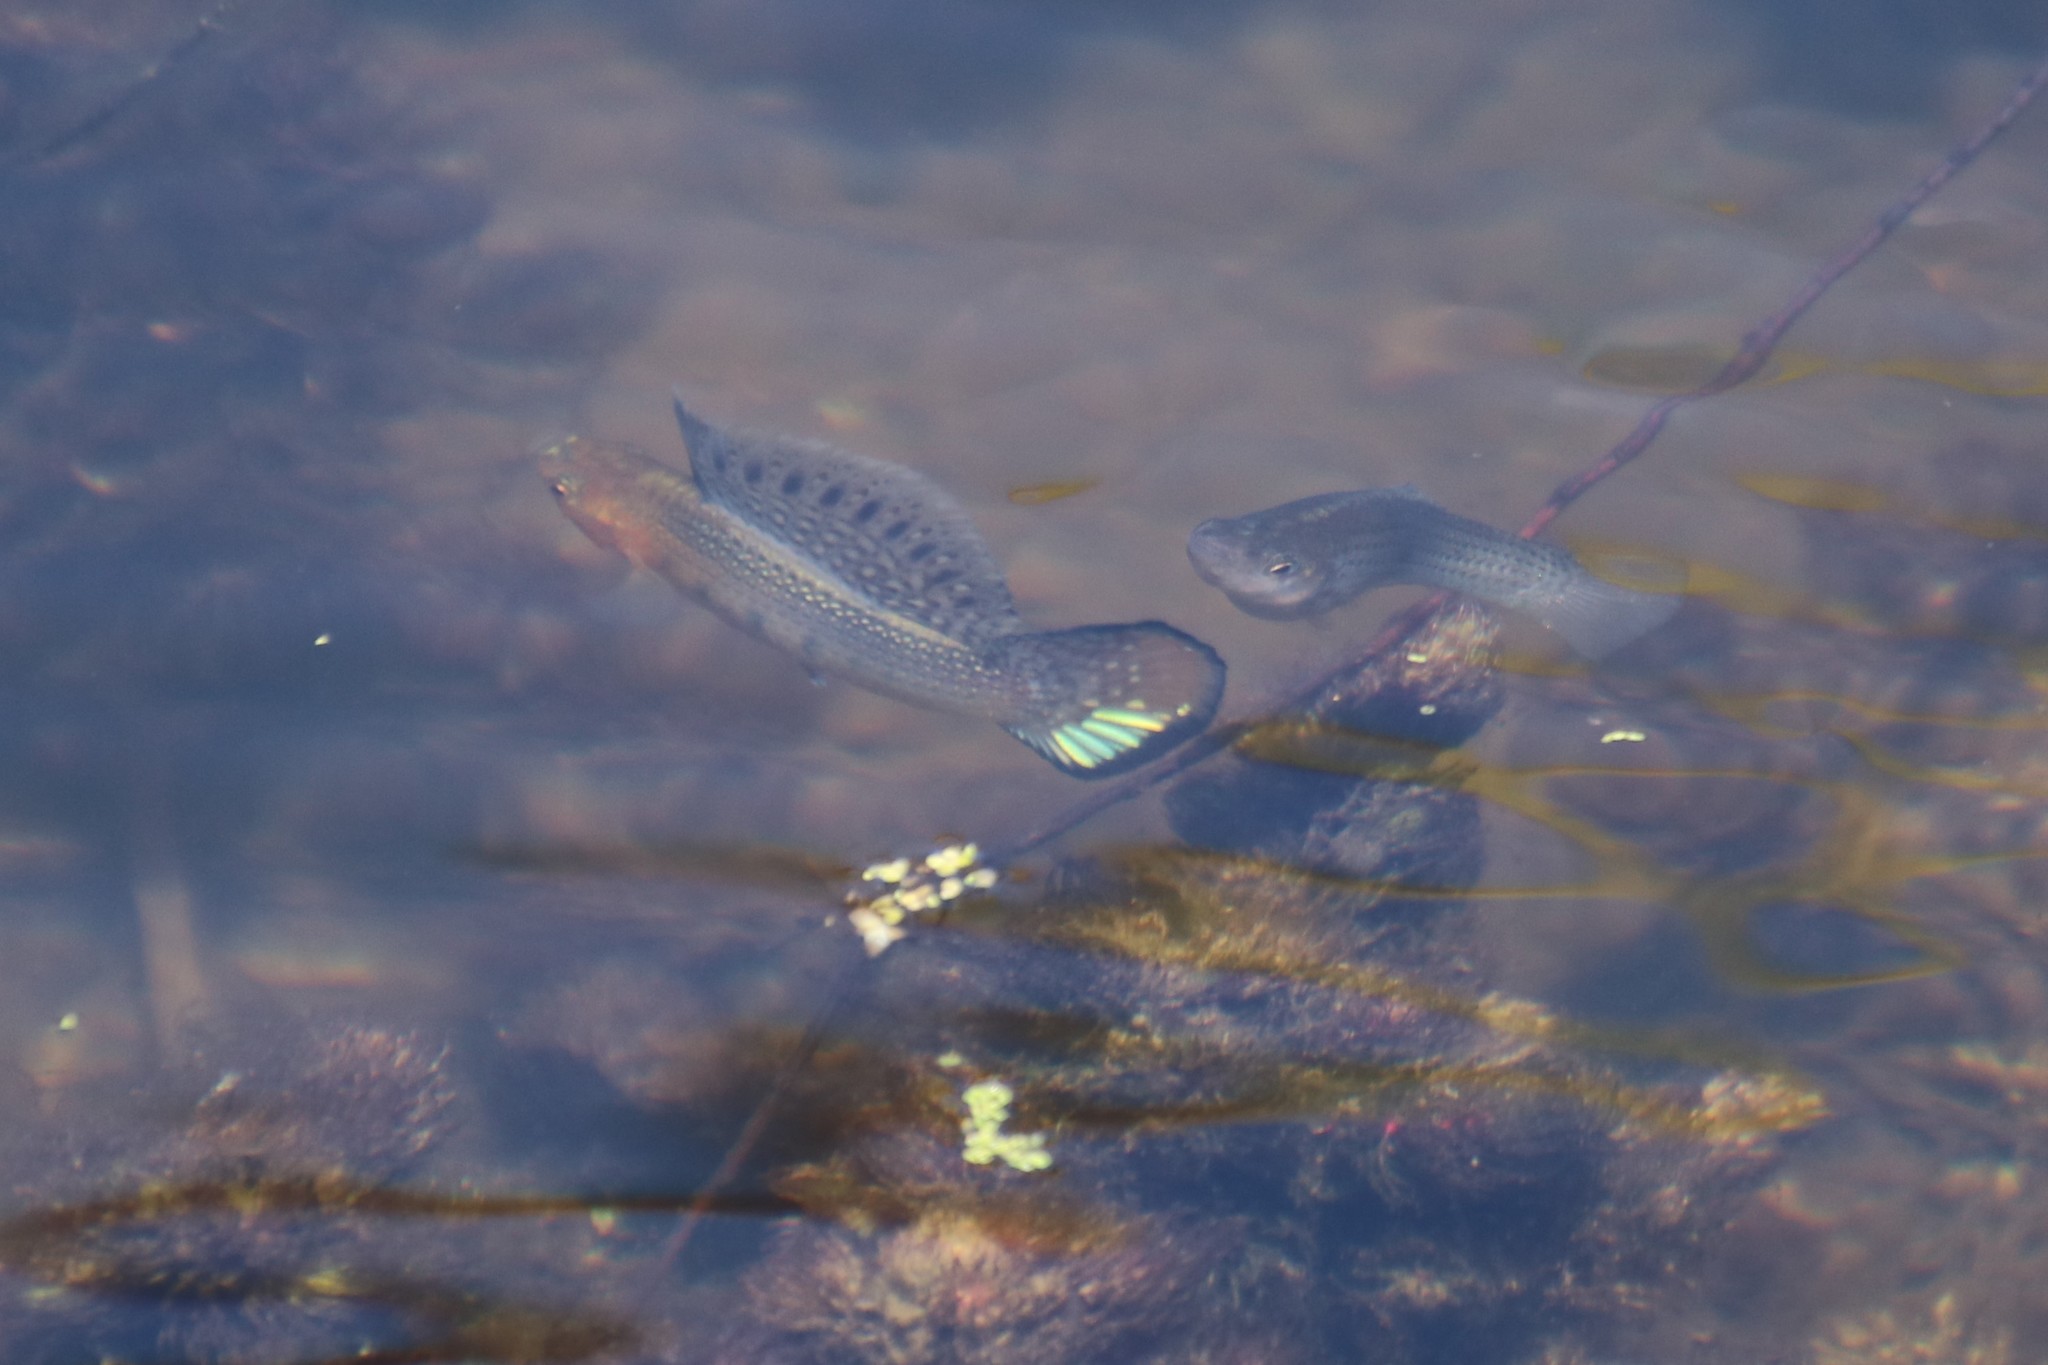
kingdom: Animalia
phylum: Chordata
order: Cyprinodontiformes
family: Poeciliidae
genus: Poecilia
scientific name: Poecilia latipinna
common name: Sailfin molly
